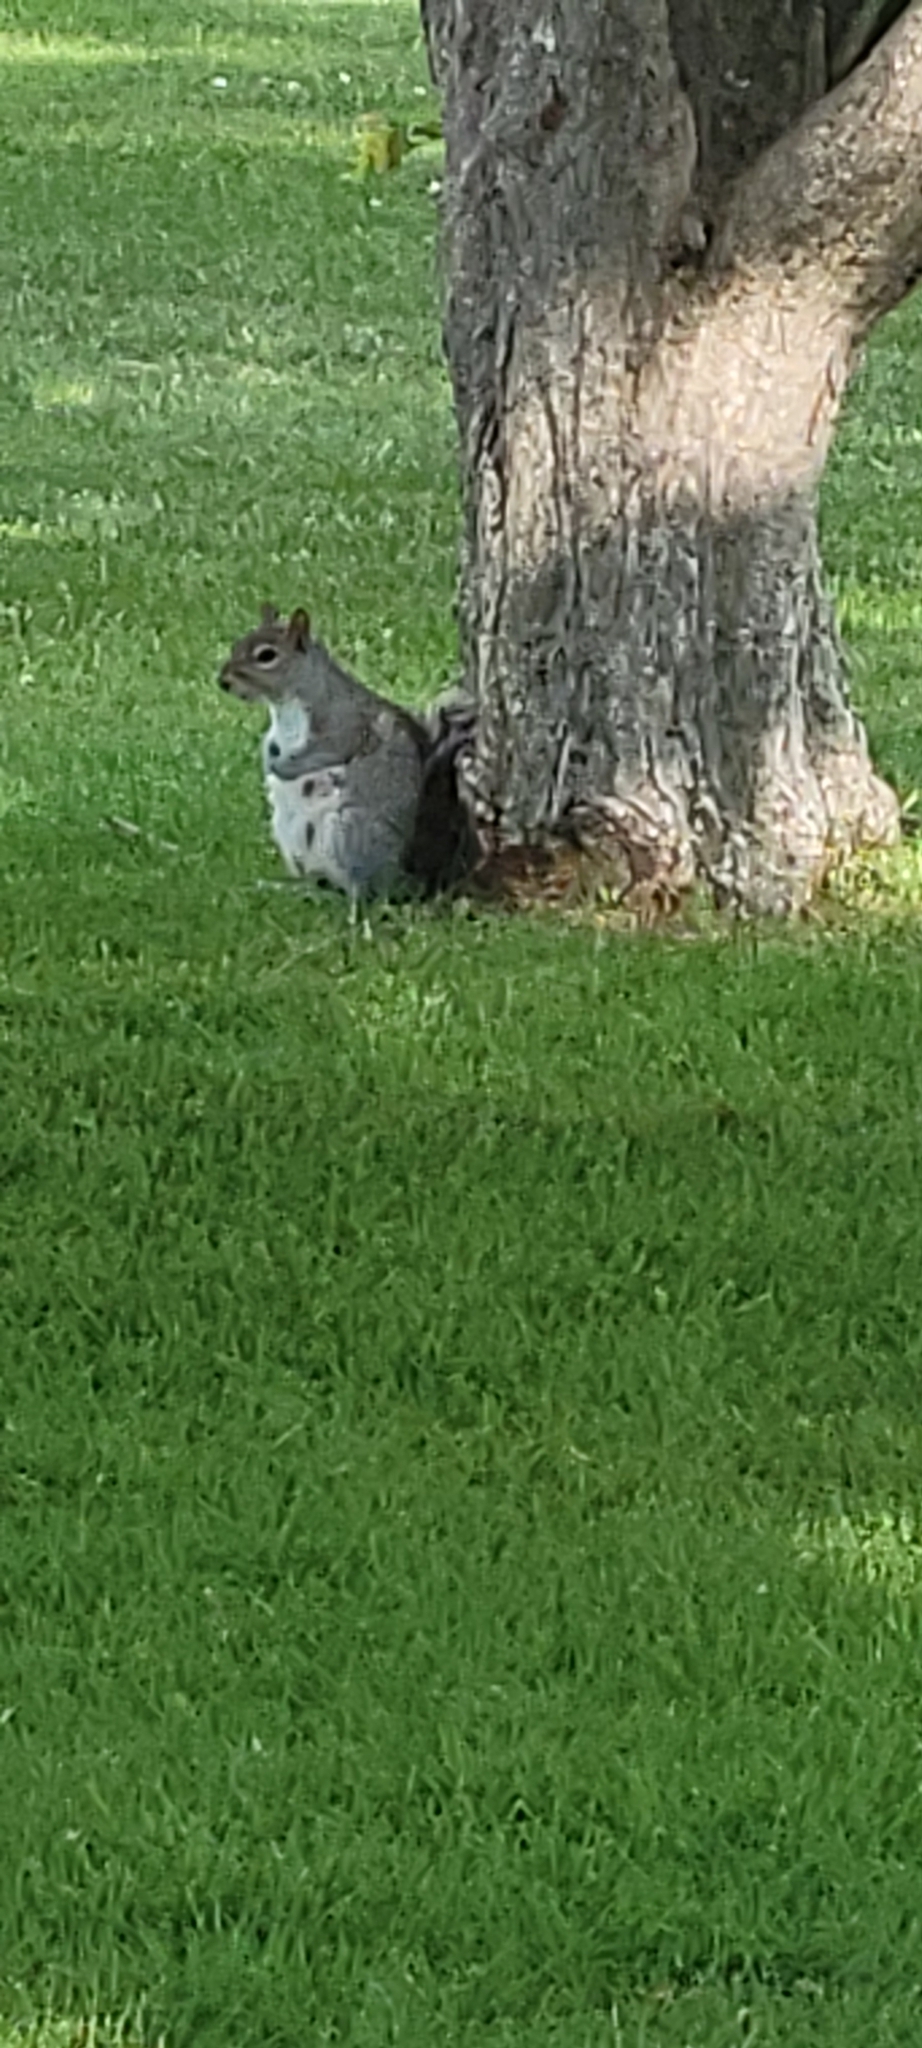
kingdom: Animalia
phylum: Chordata
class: Mammalia
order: Rodentia
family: Sciuridae
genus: Sciurus
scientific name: Sciurus carolinensis
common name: Eastern gray squirrel
